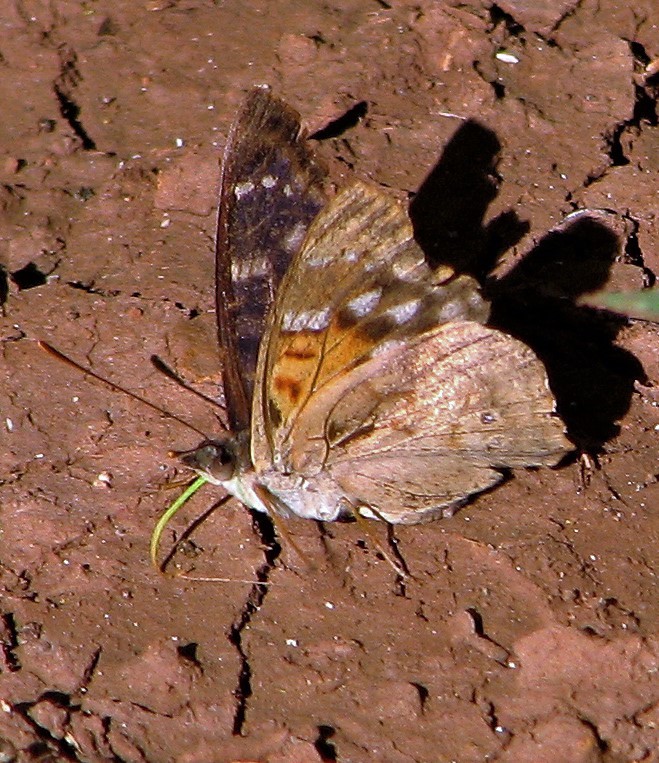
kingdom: Animalia
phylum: Arthropoda
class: Insecta
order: Lepidoptera
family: Nymphalidae
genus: Doxocopa
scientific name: Doxocopa zunilda
